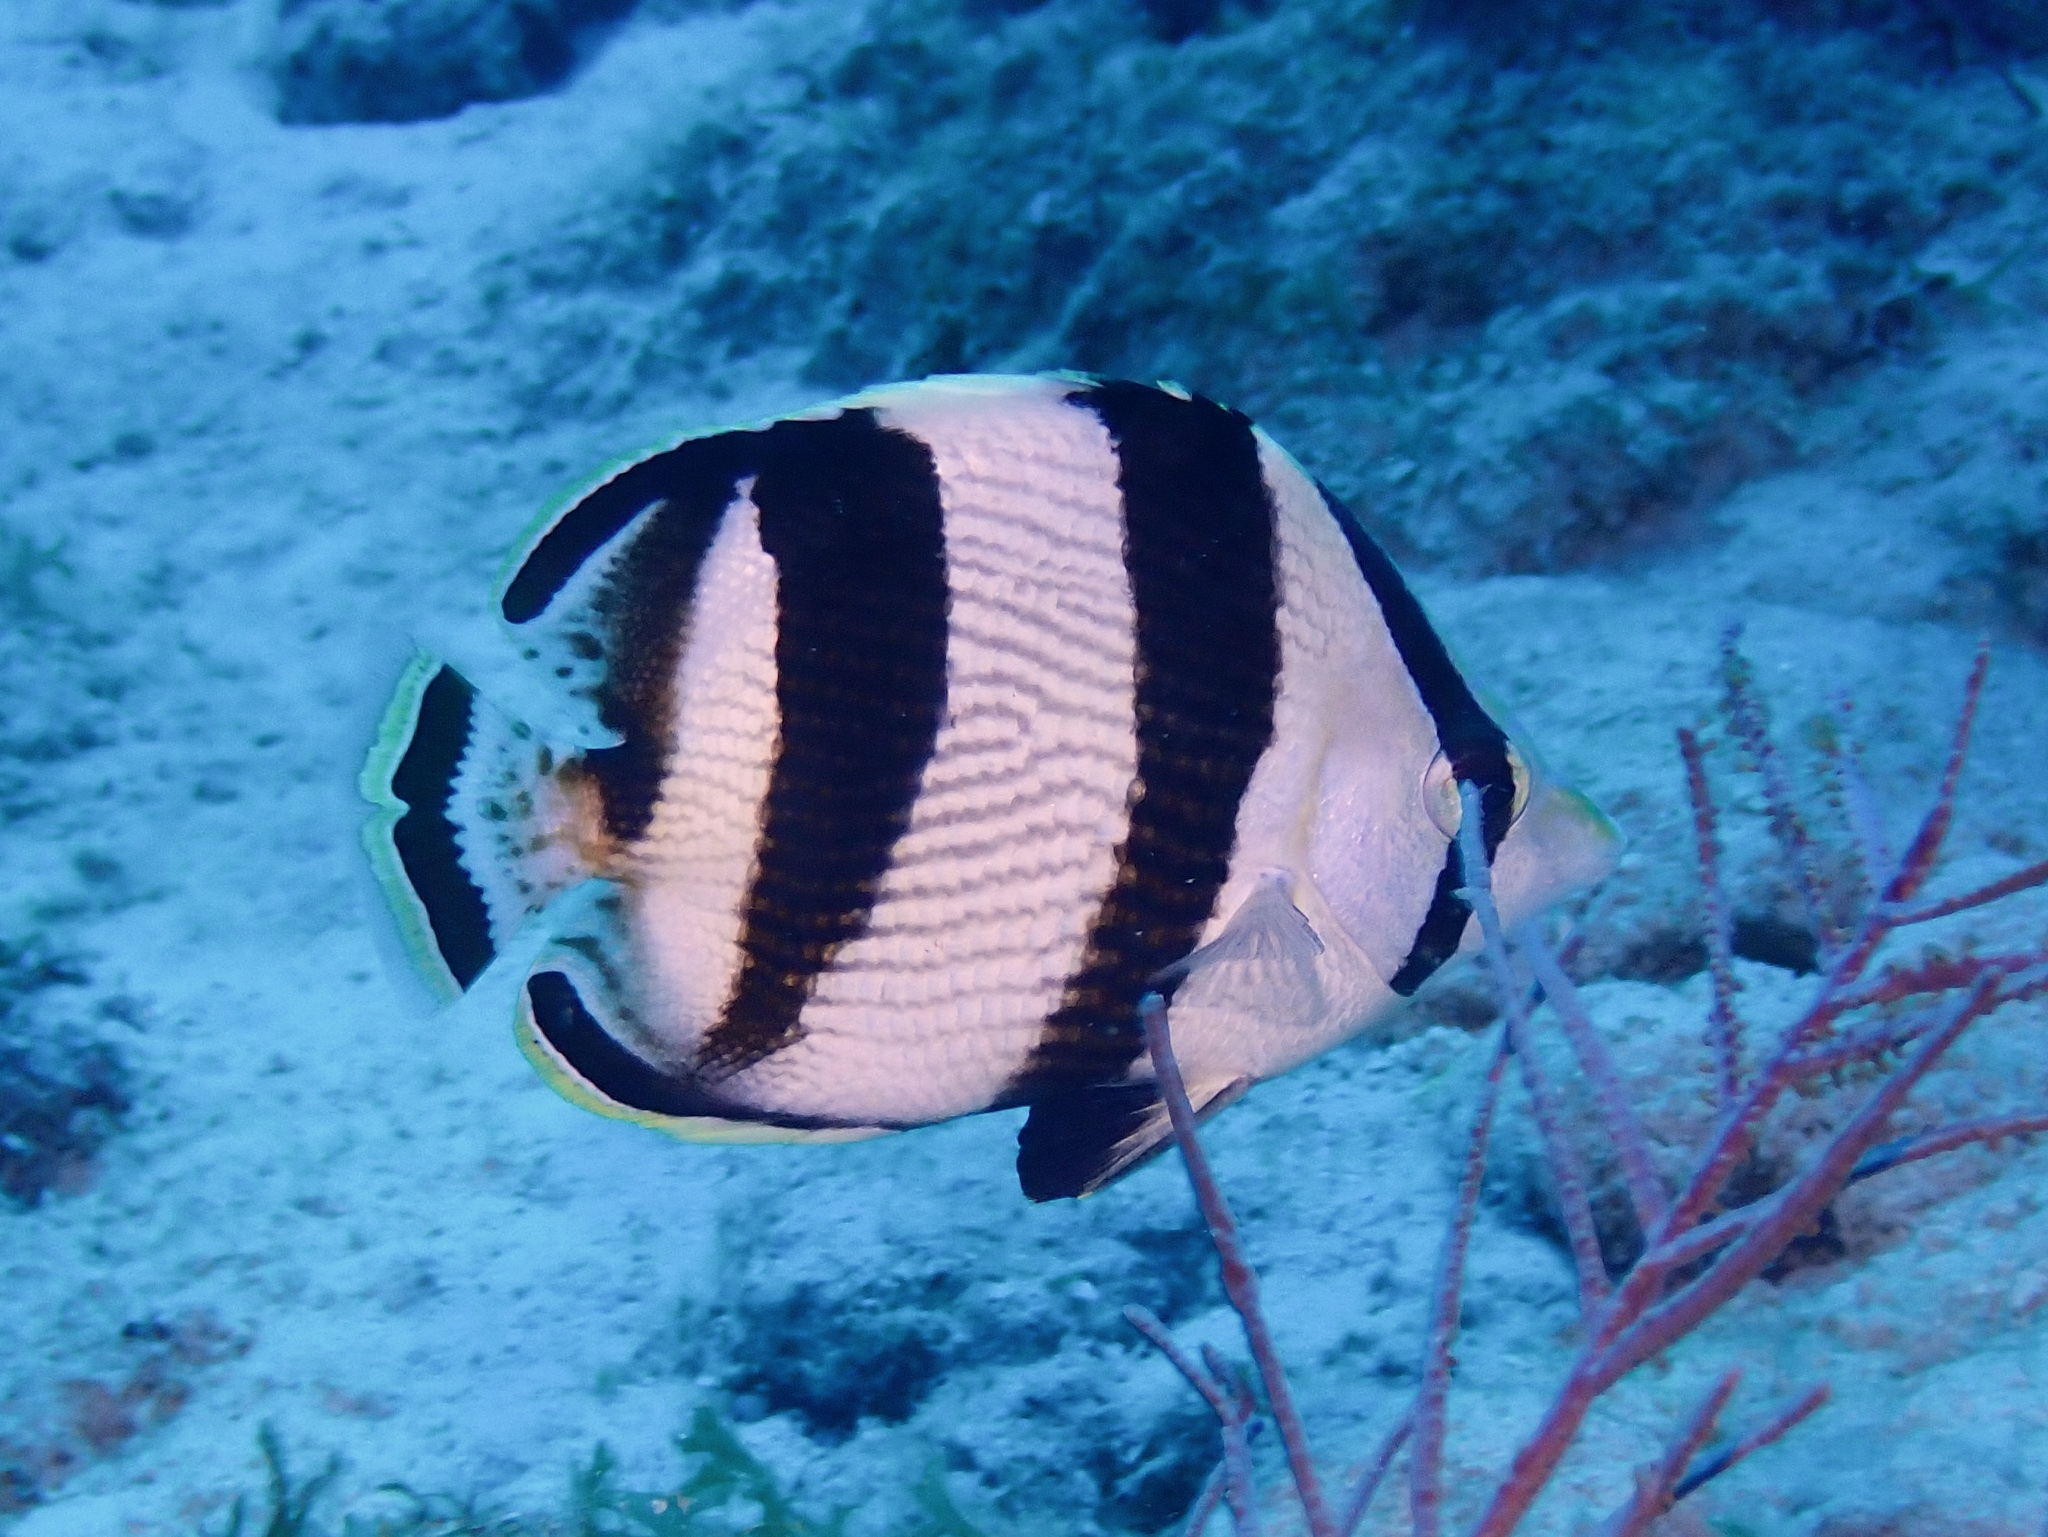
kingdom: Animalia
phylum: Chordata
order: Perciformes
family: Chaetodontidae
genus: Chaetodon
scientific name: Chaetodon striatus
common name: Banded butterflyfish
